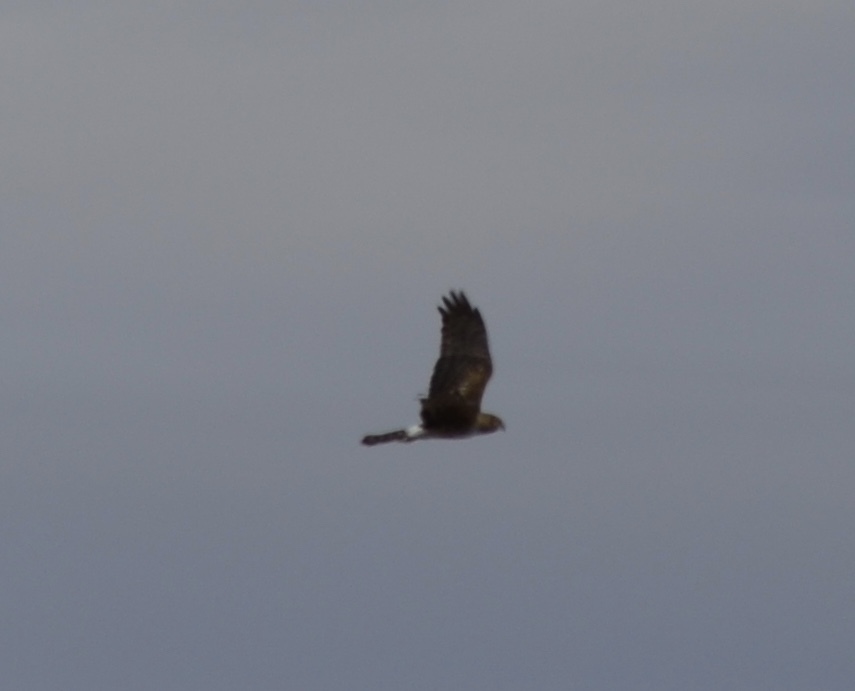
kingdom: Animalia
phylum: Chordata
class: Aves
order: Accipitriformes
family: Accipitridae
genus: Circus
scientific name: Circus cyaneus
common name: Hen harrier
